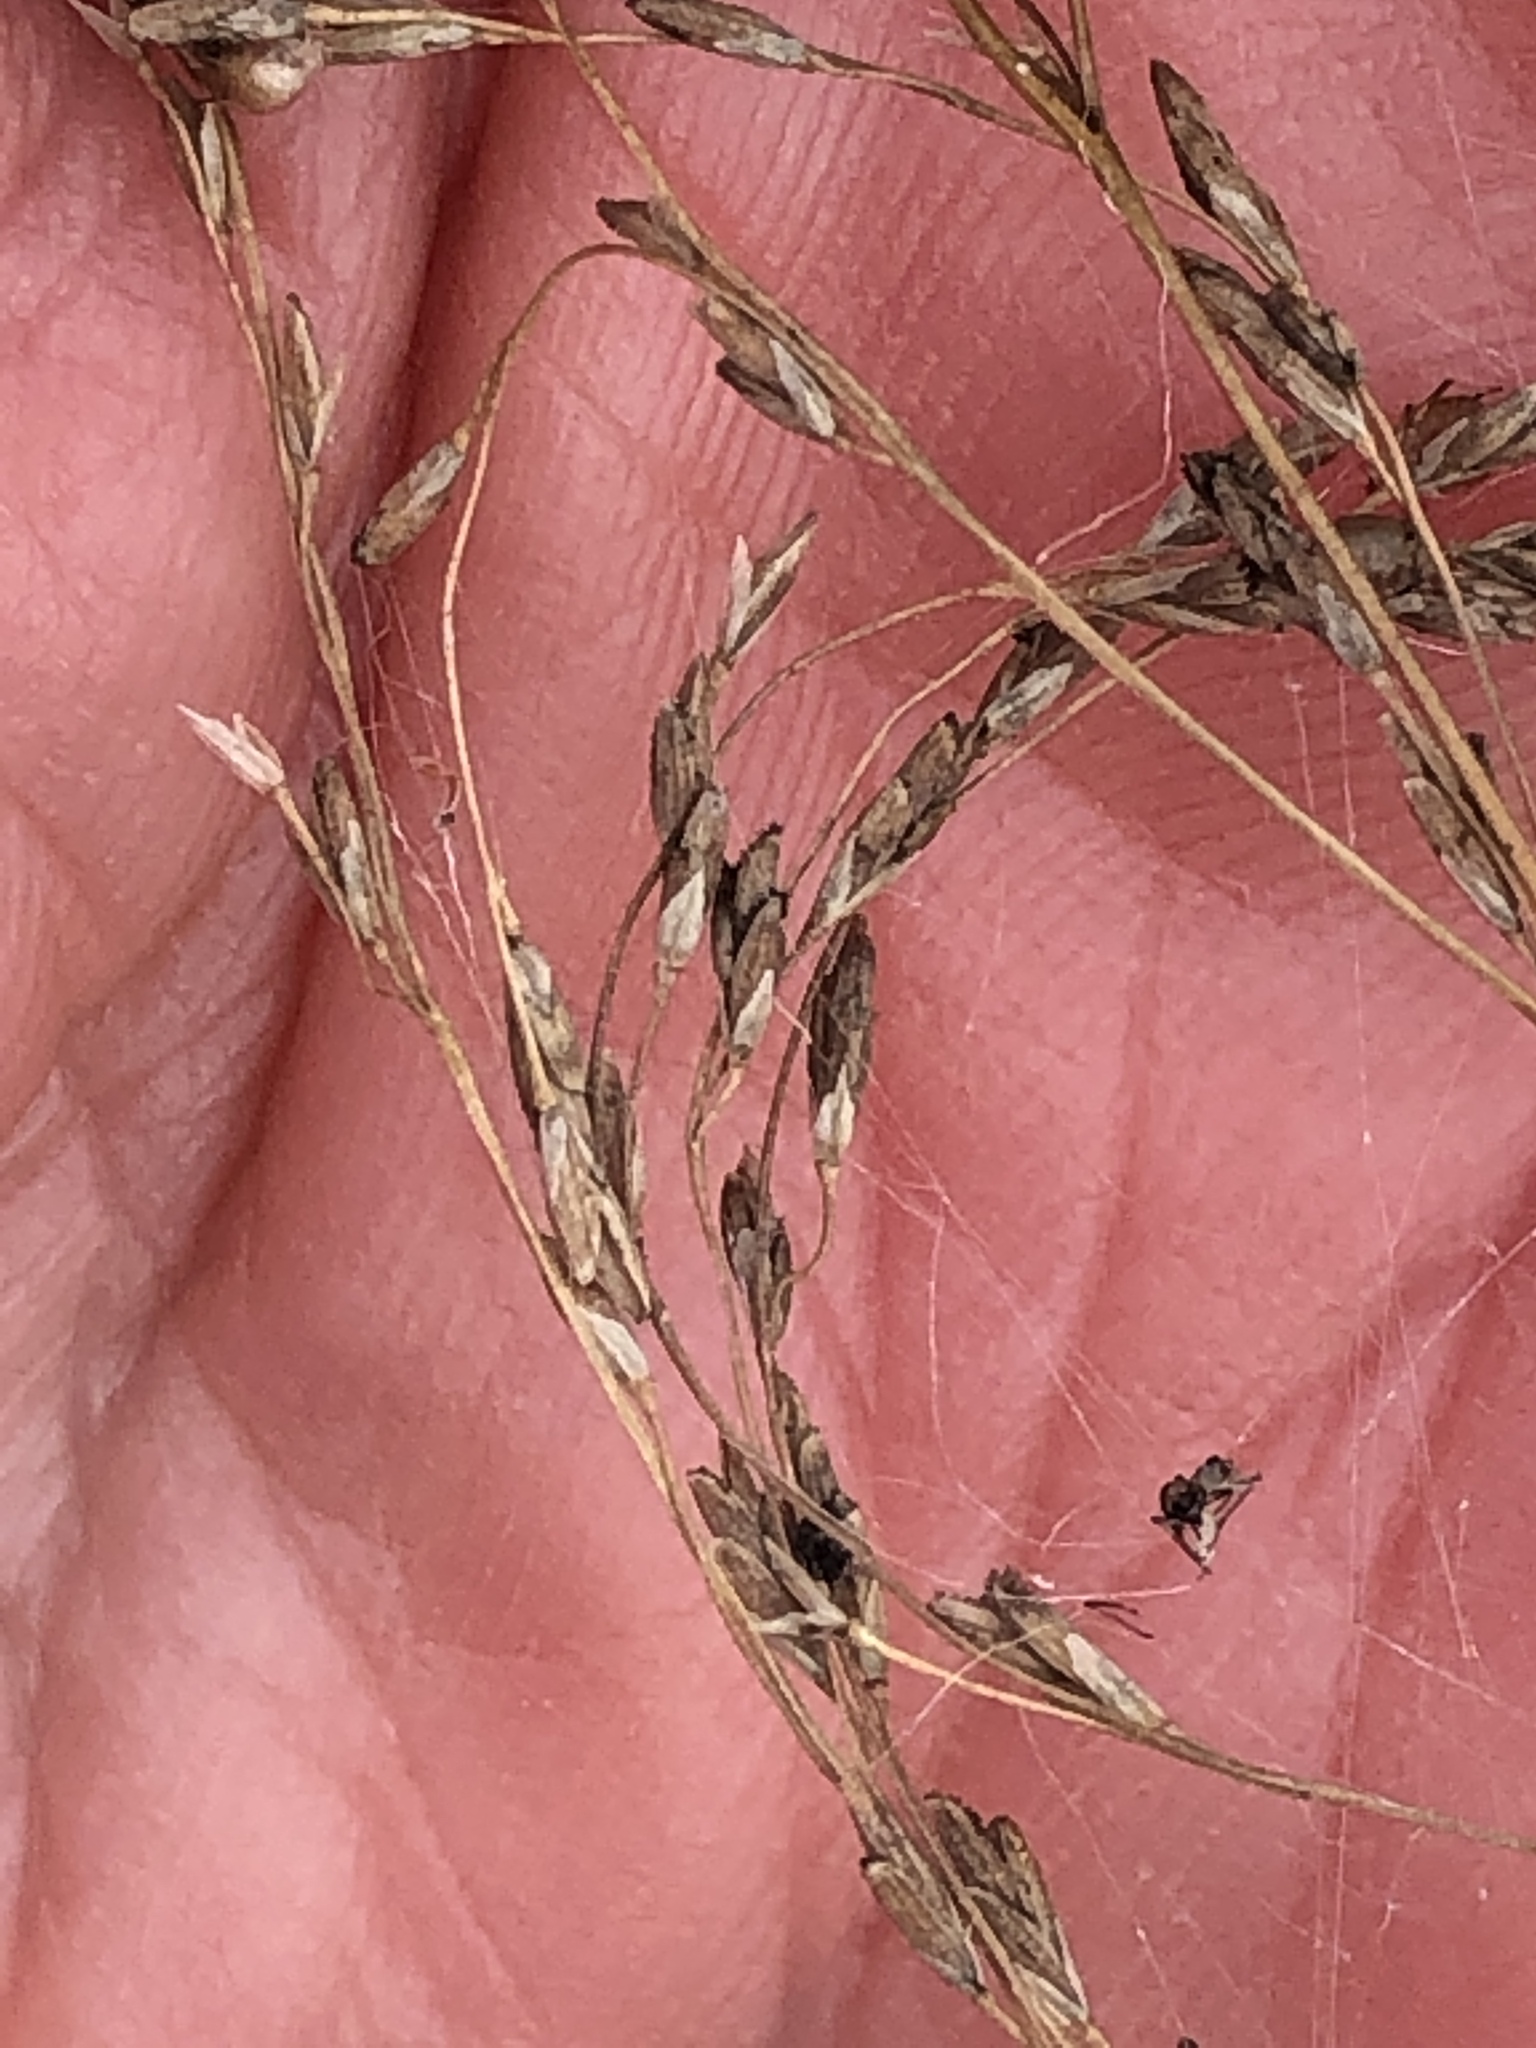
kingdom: Plantae
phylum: Tracheophyta
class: Liliopsida
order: Poales
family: Poaceae
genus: Glyceria
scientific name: Glyceria striata
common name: Fowl manna grass
